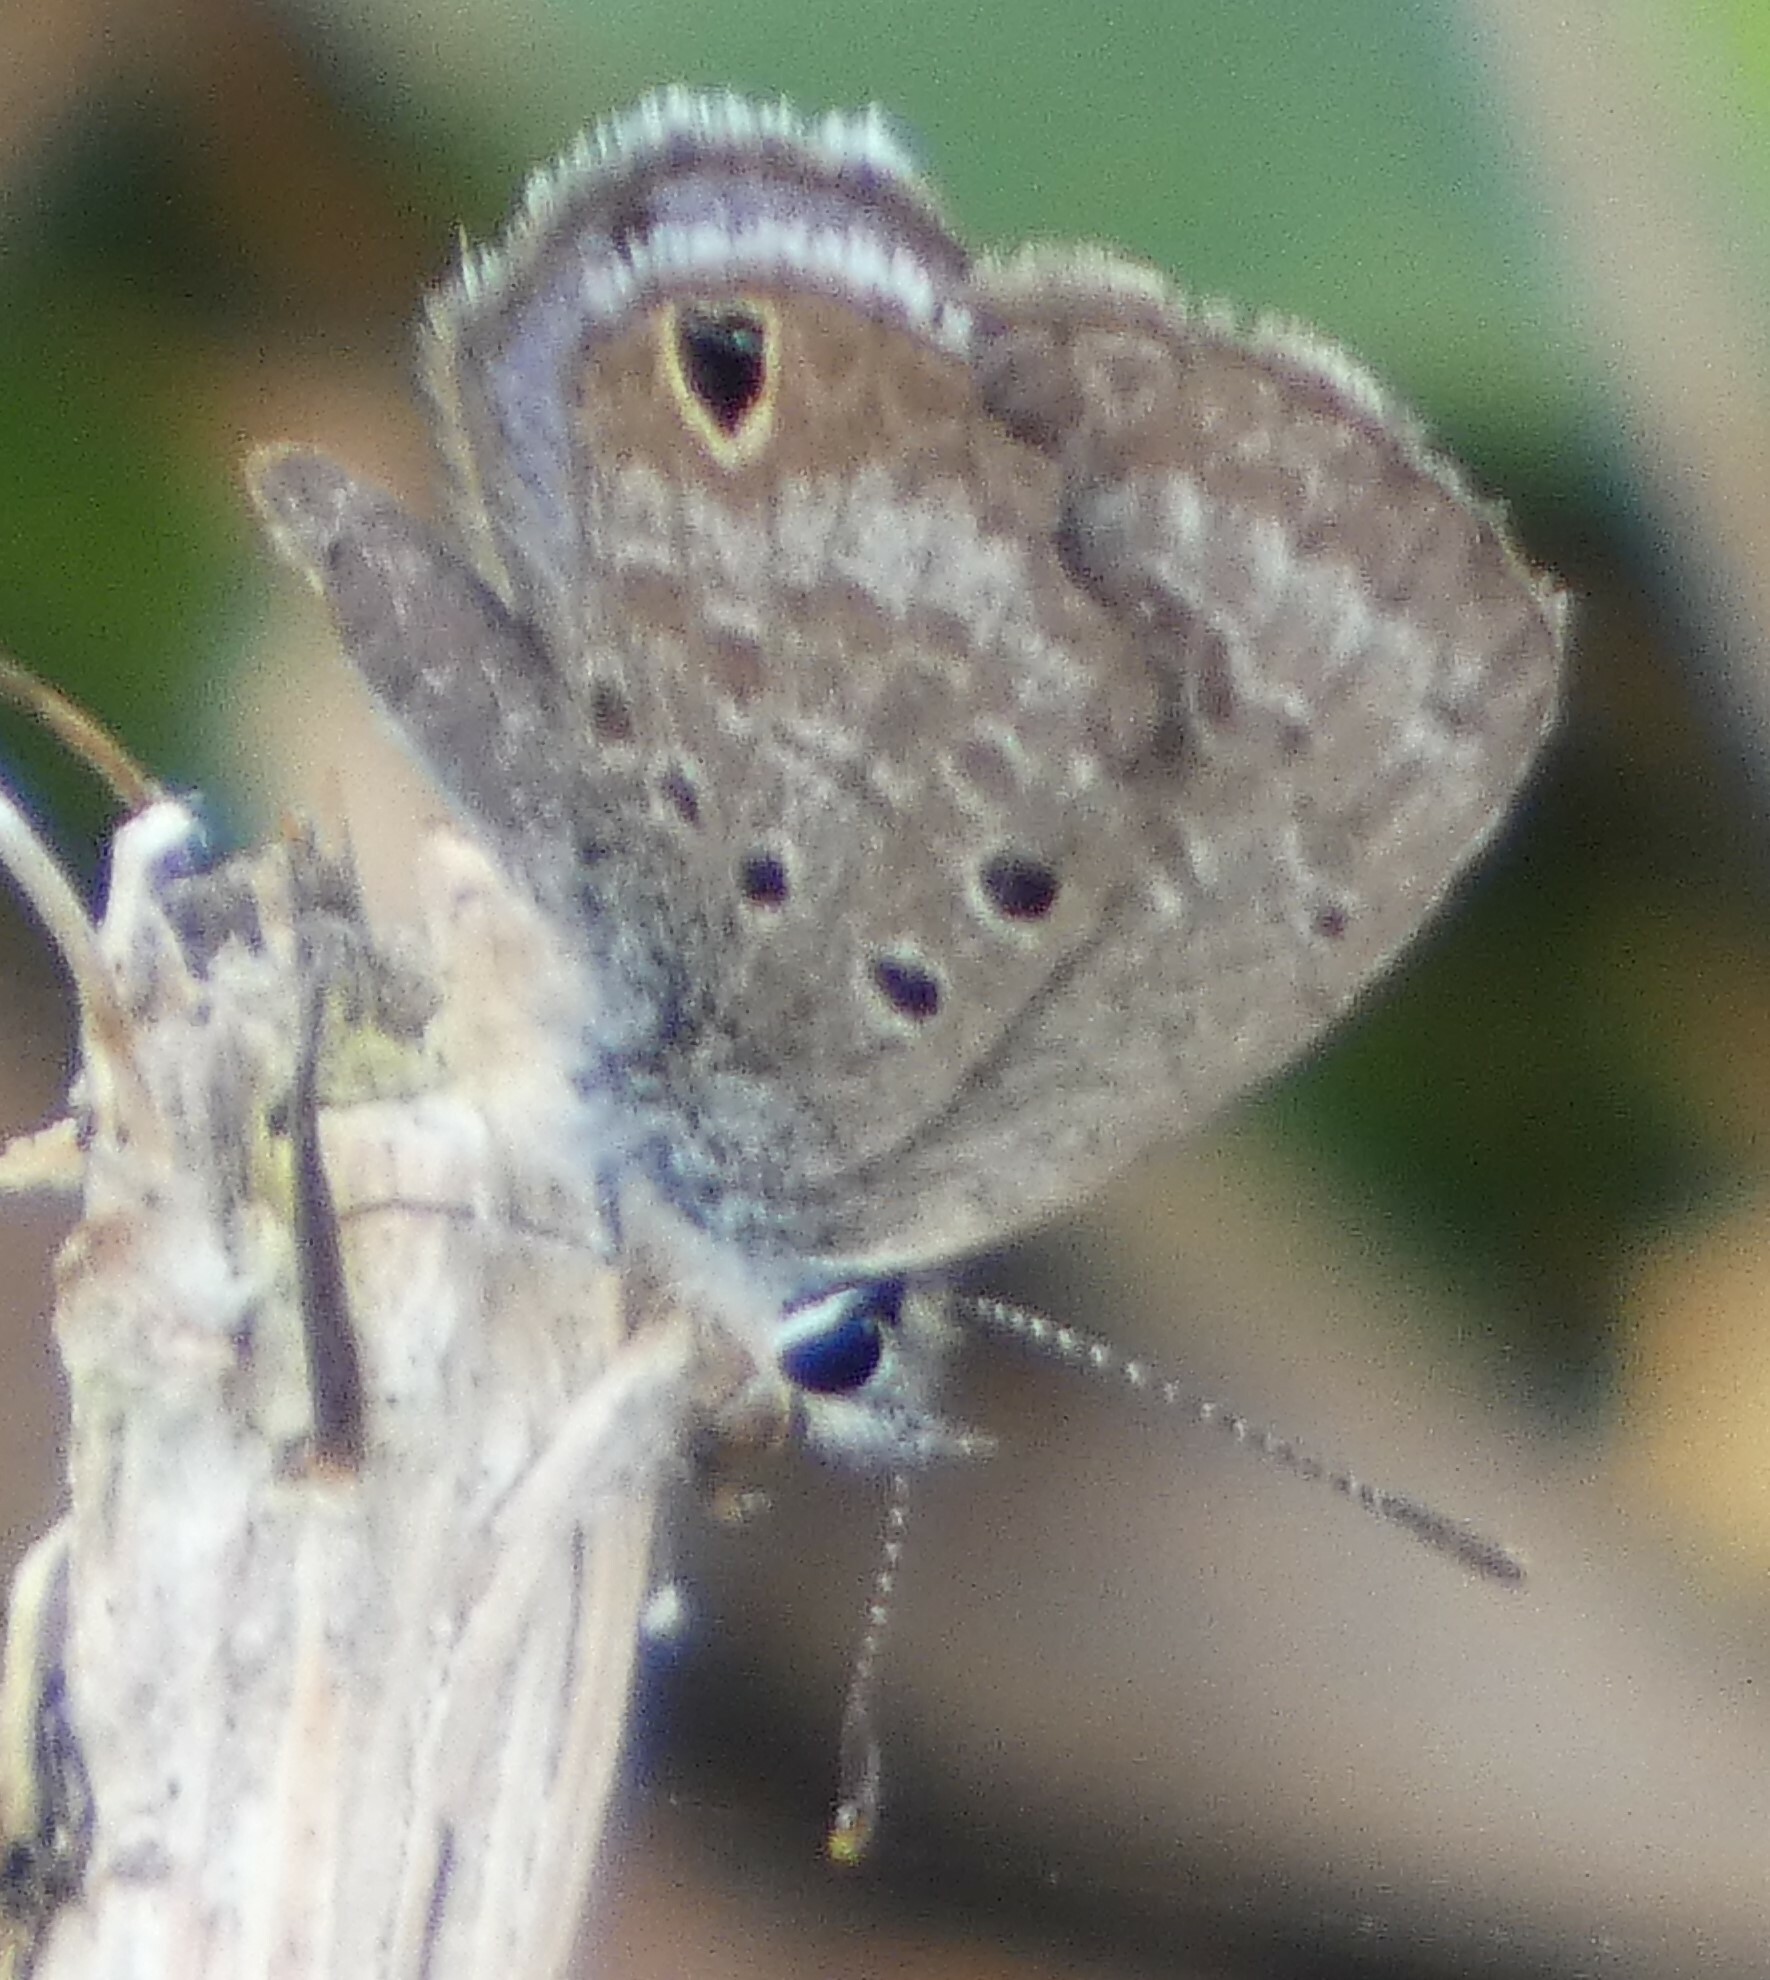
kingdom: Animalia
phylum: Arthropoda
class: Insecta
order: Lepidoptera
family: Lycaenidae
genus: Hemiargus
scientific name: Hemiargus ceraunus
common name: Ceraunus blue
